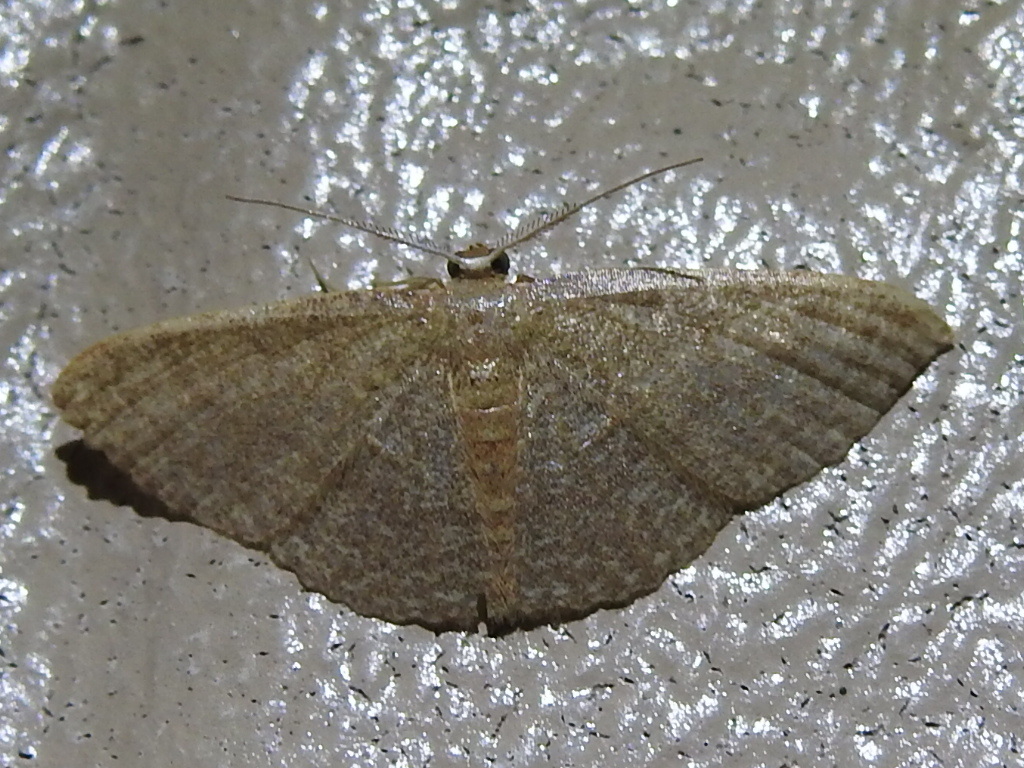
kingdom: Animalia
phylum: Arthropoda
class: Insecta
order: Lepidoptera
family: Geometridae
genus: Pleuroprucha
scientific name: Pleuroprucha insulsaria
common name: Common tan wave
